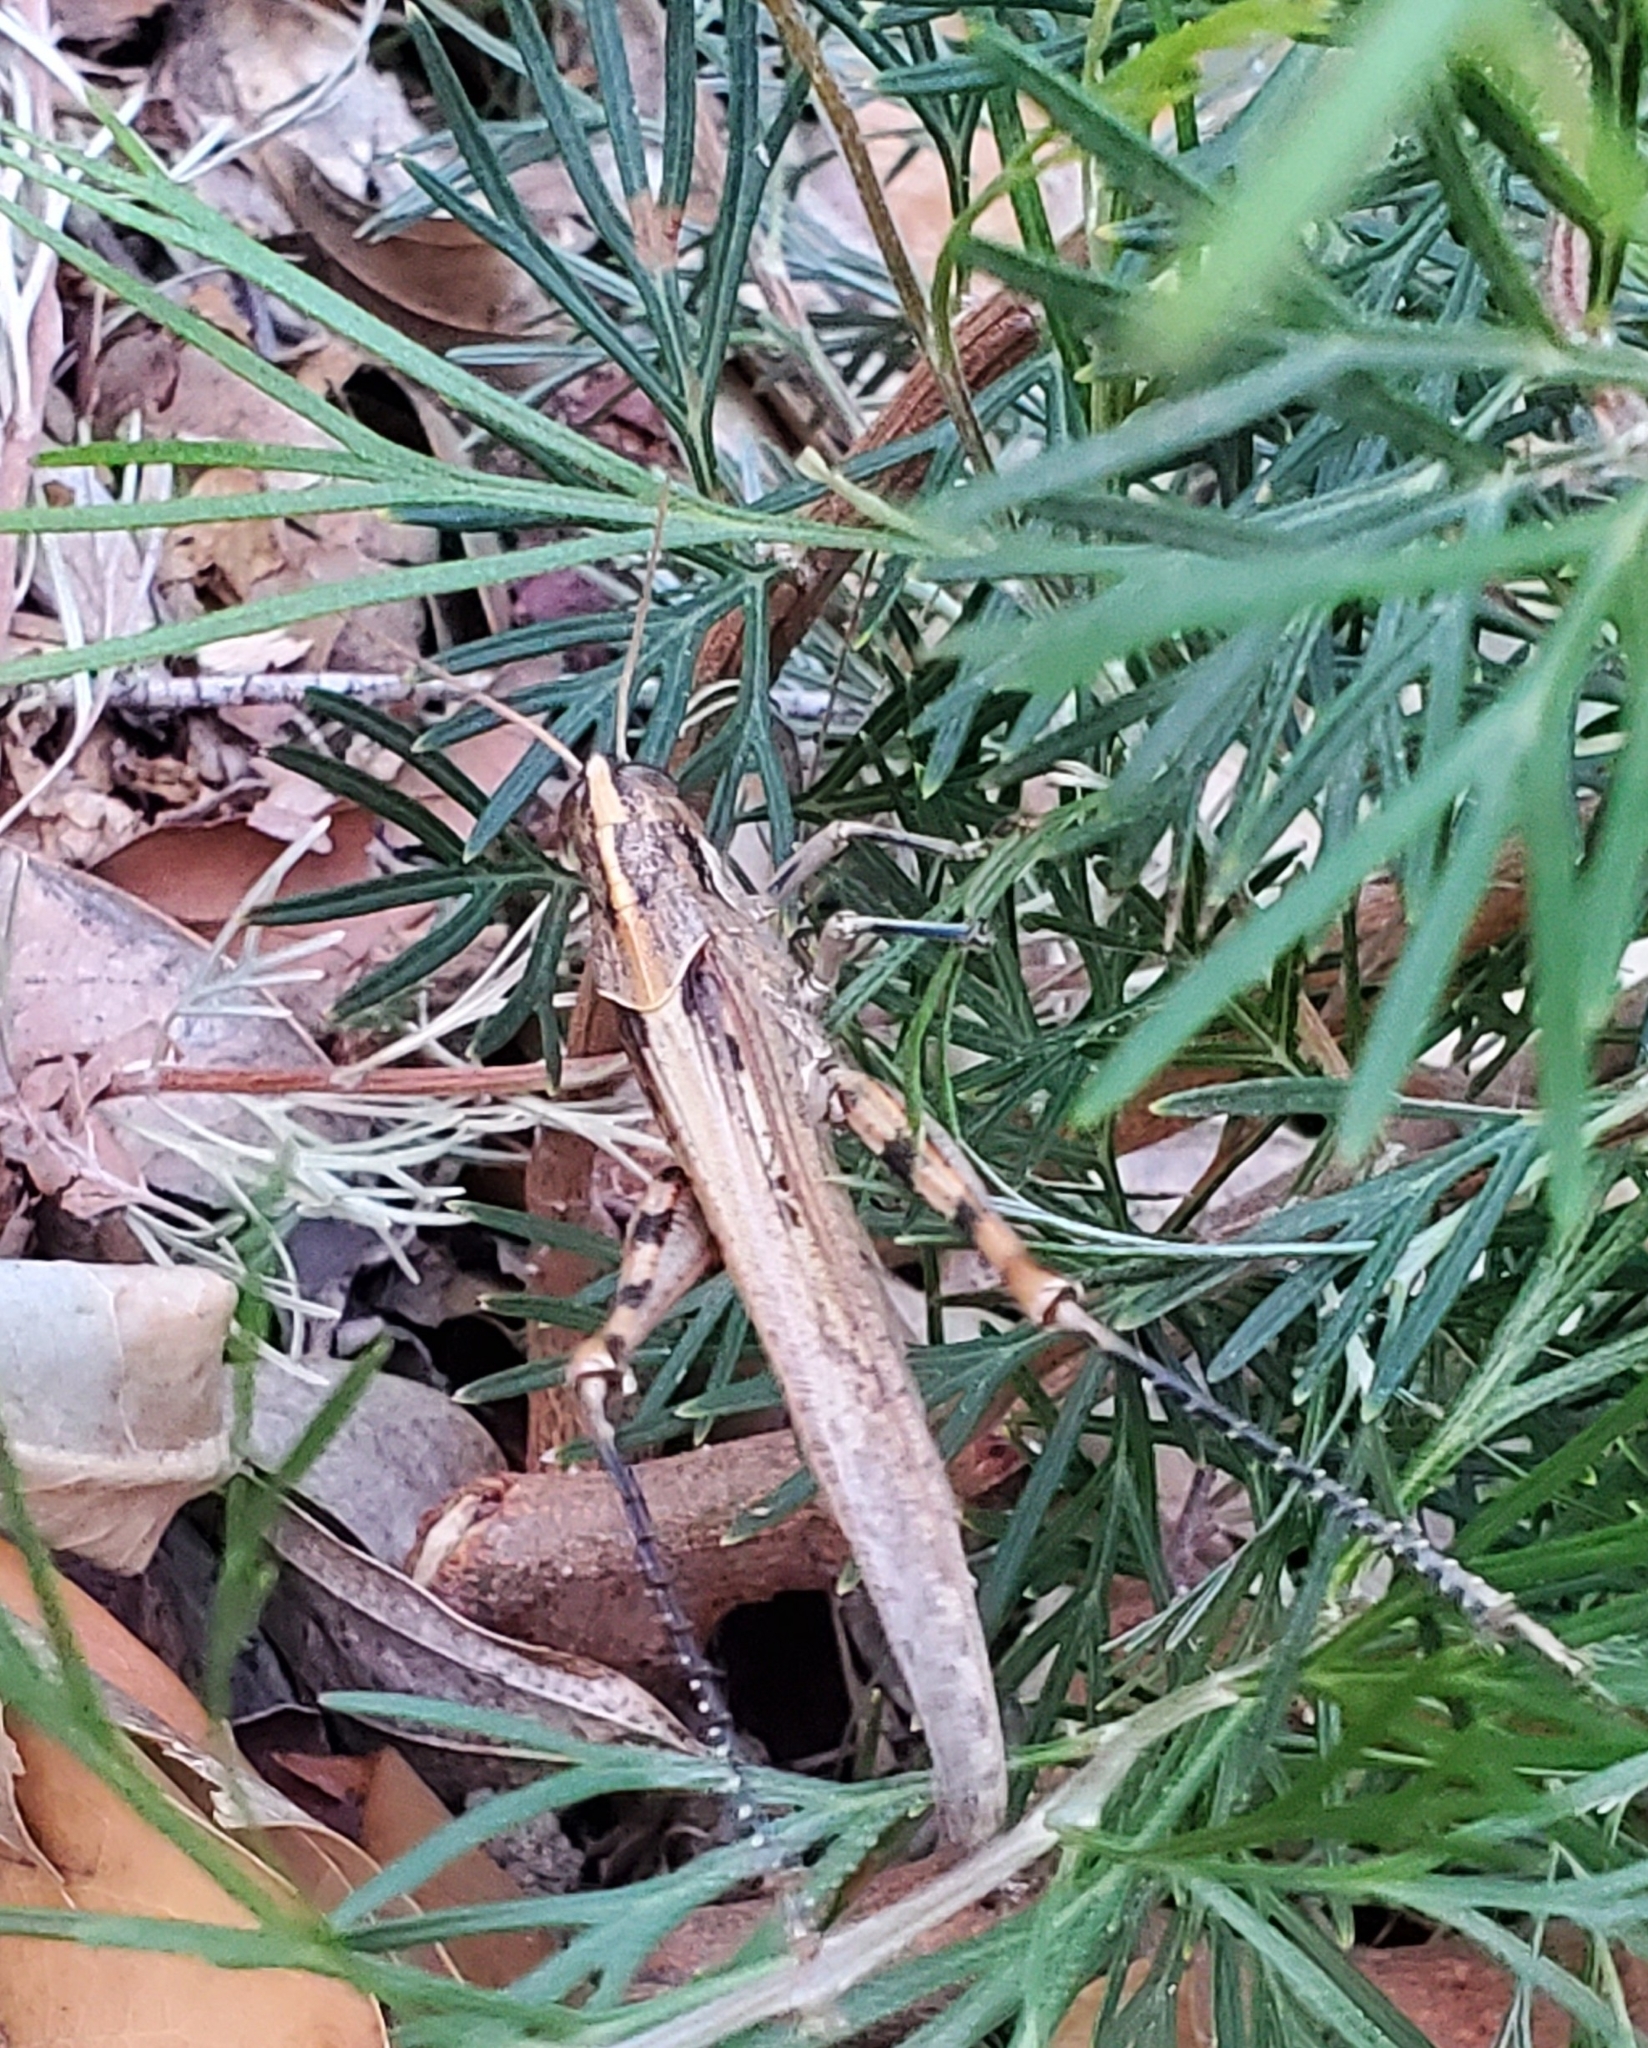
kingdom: Animalia
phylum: Arthropoda
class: Insecta
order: Orthoptera
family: Acrididae
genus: Schistocerca
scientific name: Schistocerca nitens
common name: Vagrant grasshopper
